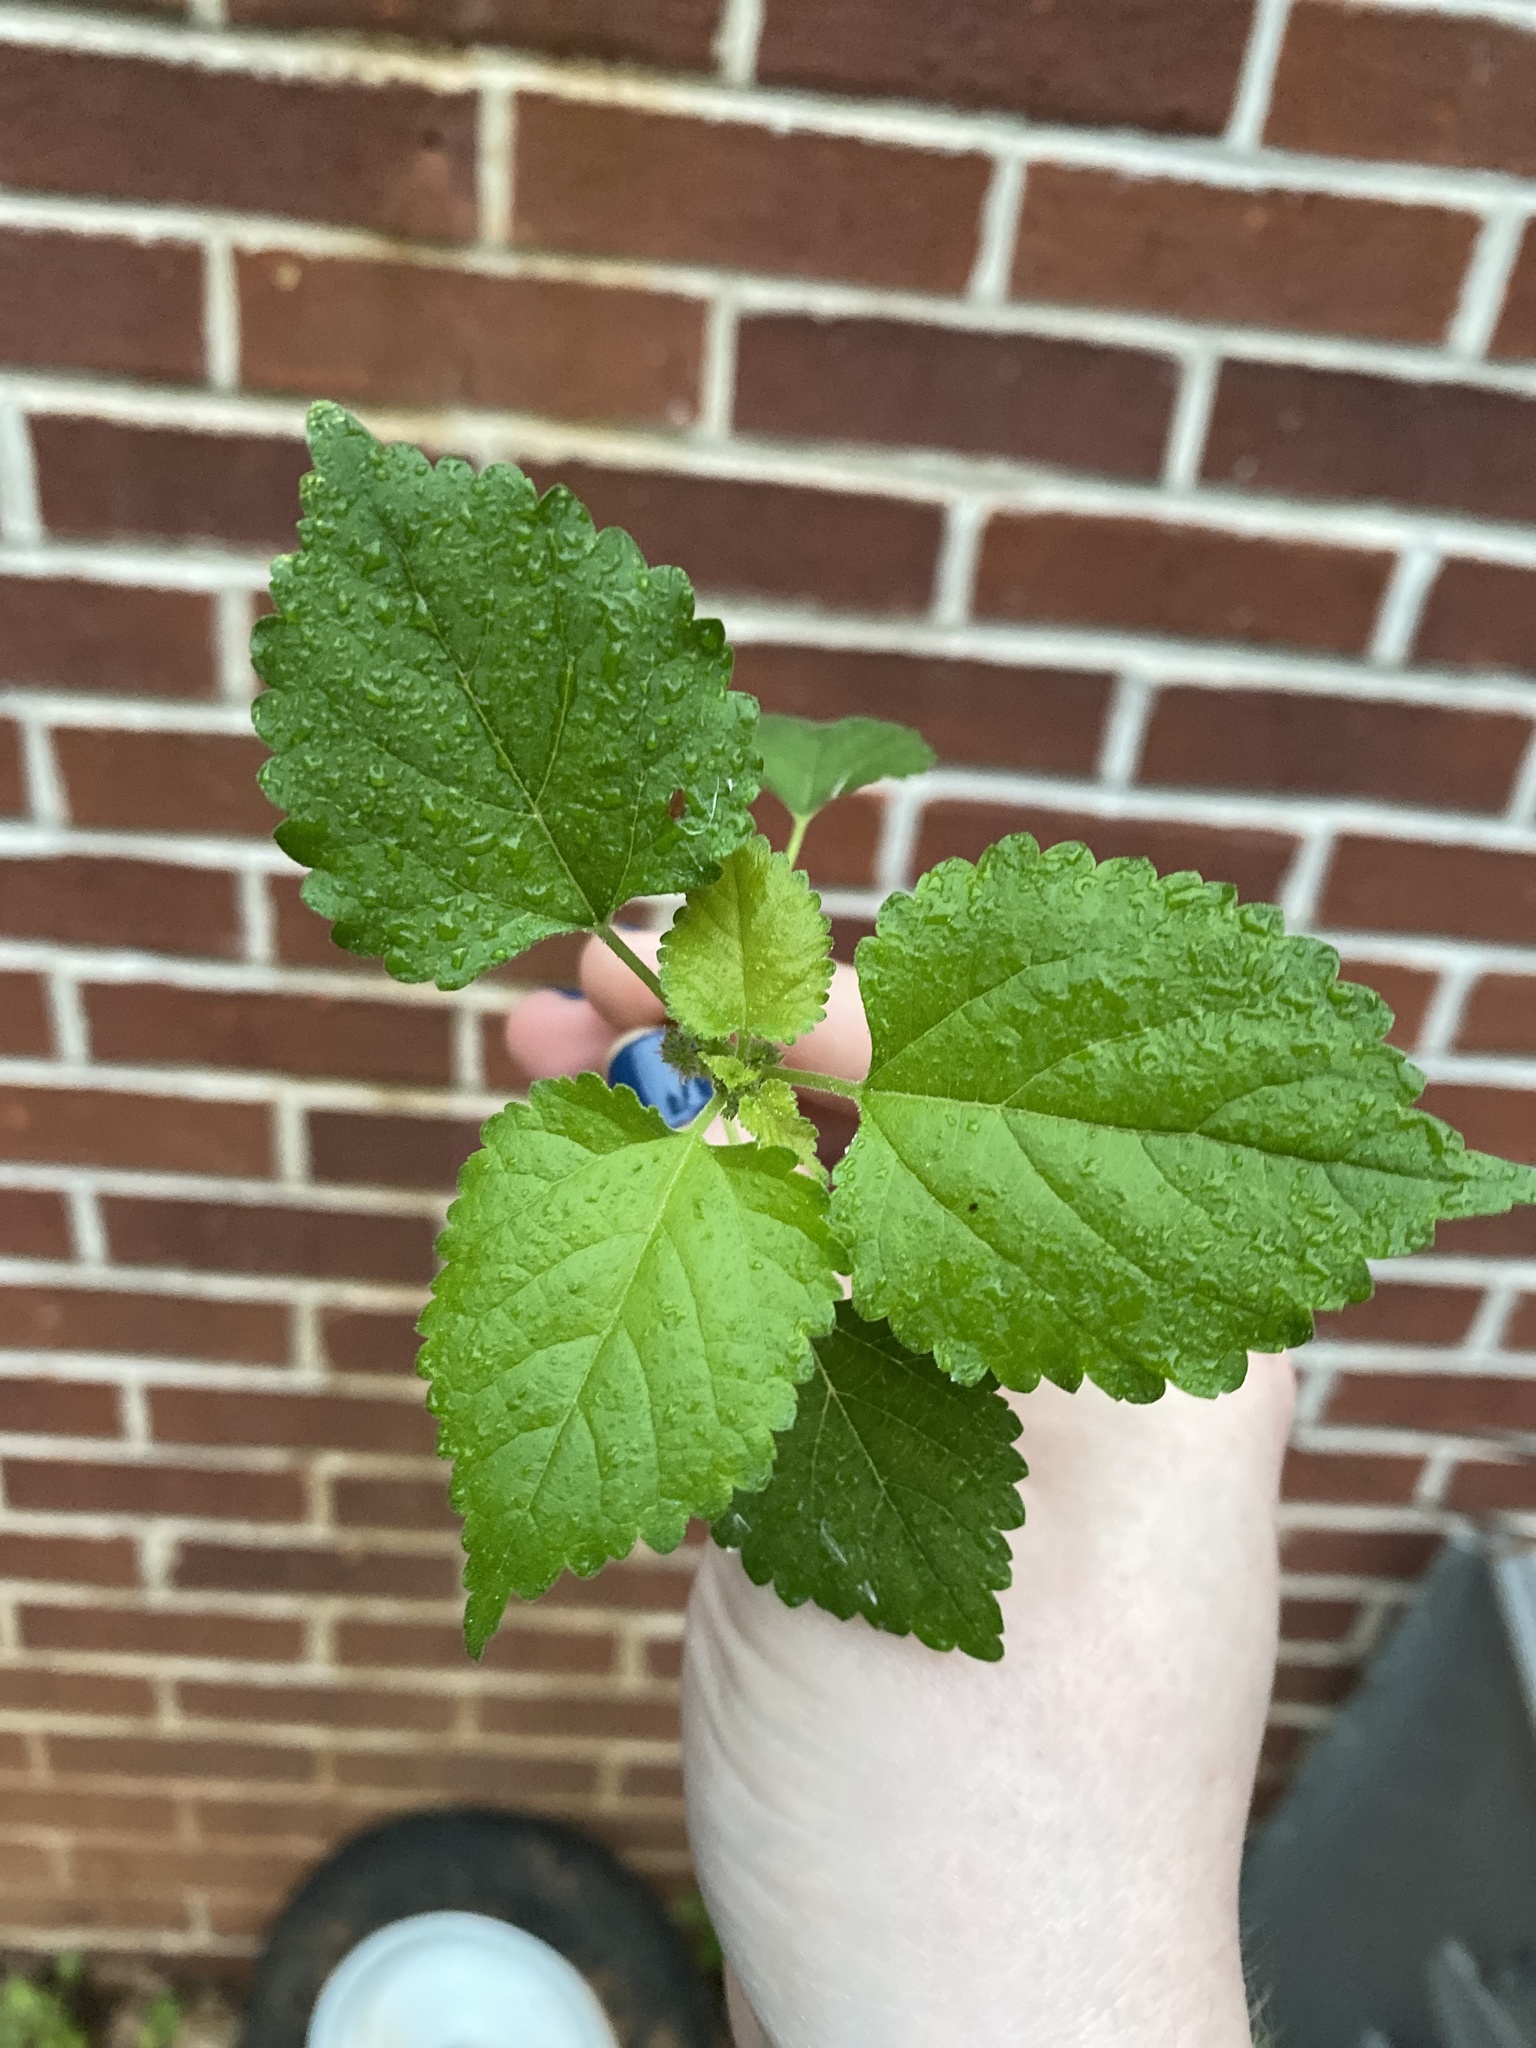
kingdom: Plantae
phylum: Tracheophyta
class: Magnoliopsida
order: Rosales
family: Moraceae
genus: Fatoua
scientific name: Fatoua villosa
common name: Hairy crabweed
